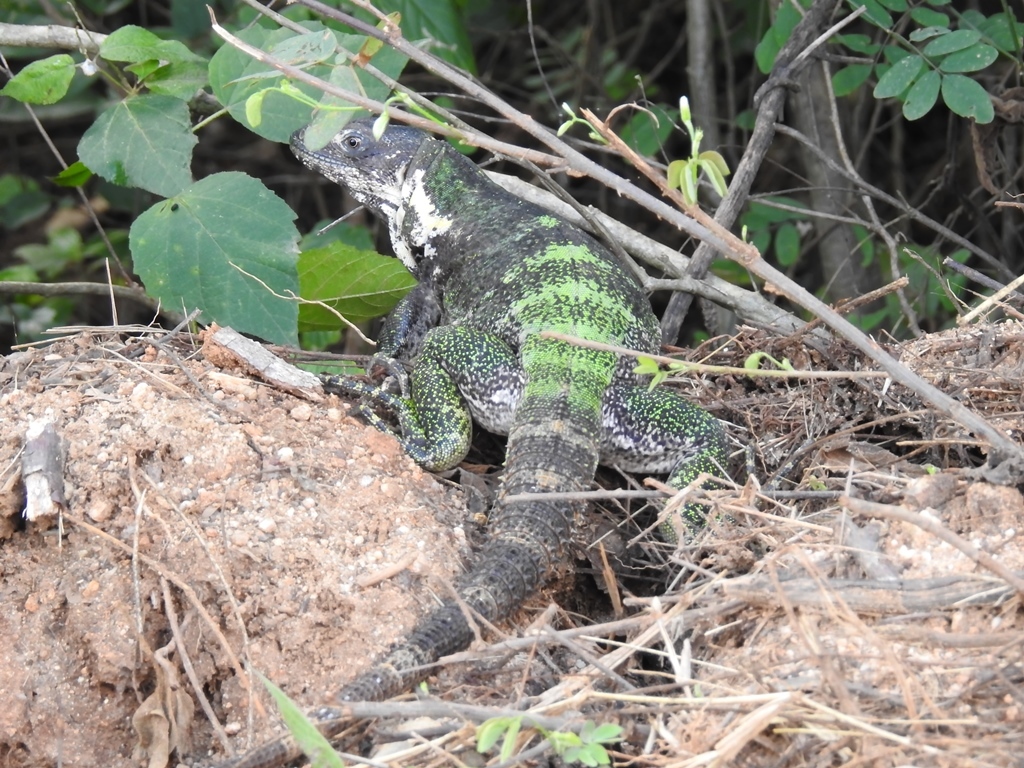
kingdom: Animalia
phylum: Chordata
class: Squamata
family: Iguanidae
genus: Ctenosaura
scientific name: Ctenosaura acanthura
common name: Northeastern spinytail iguana
